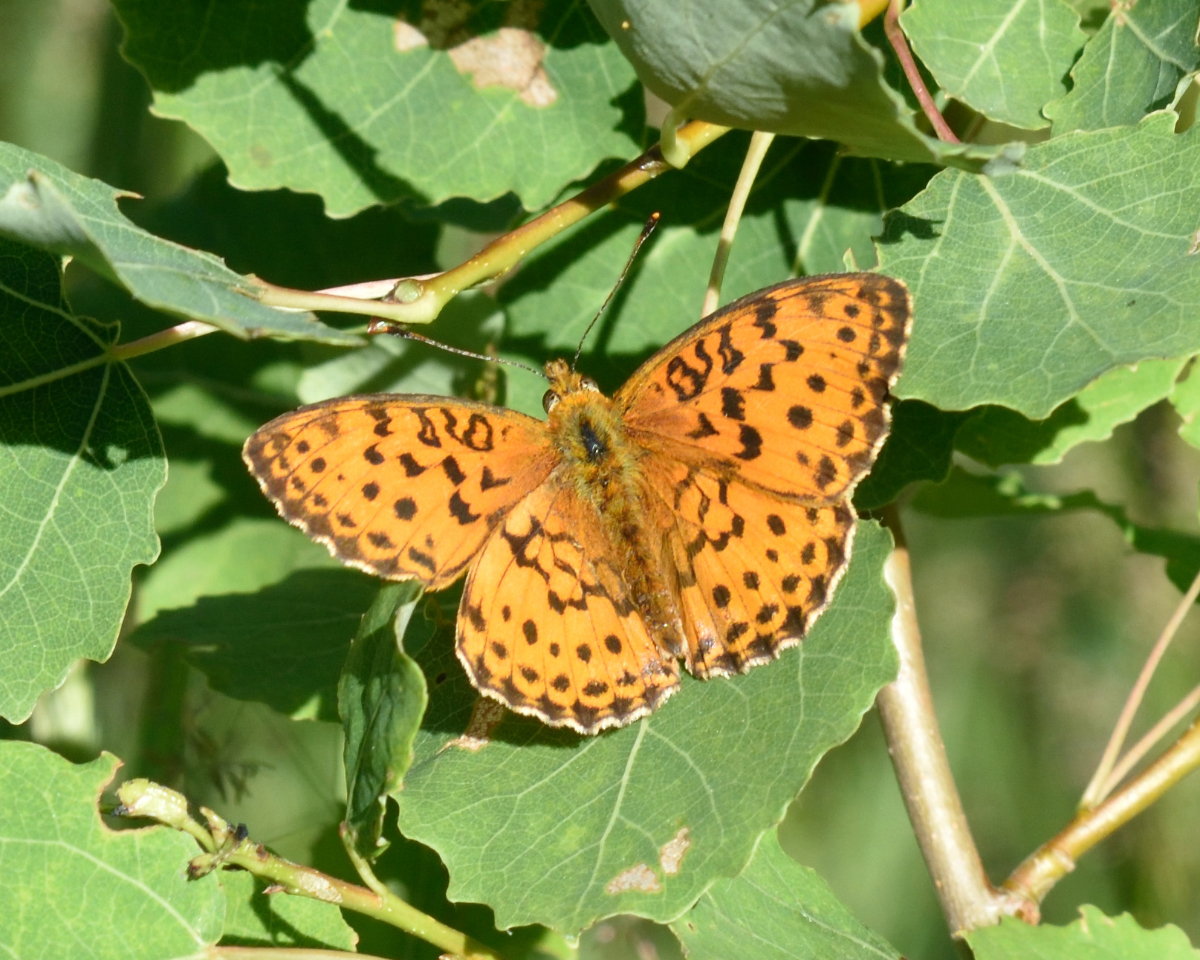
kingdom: Animalia
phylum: Arthropoda
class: Insecta
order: Lepidoptera
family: Nymphalidae
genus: Brenthis
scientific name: Brenthis daphne
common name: Marbled fritillary
